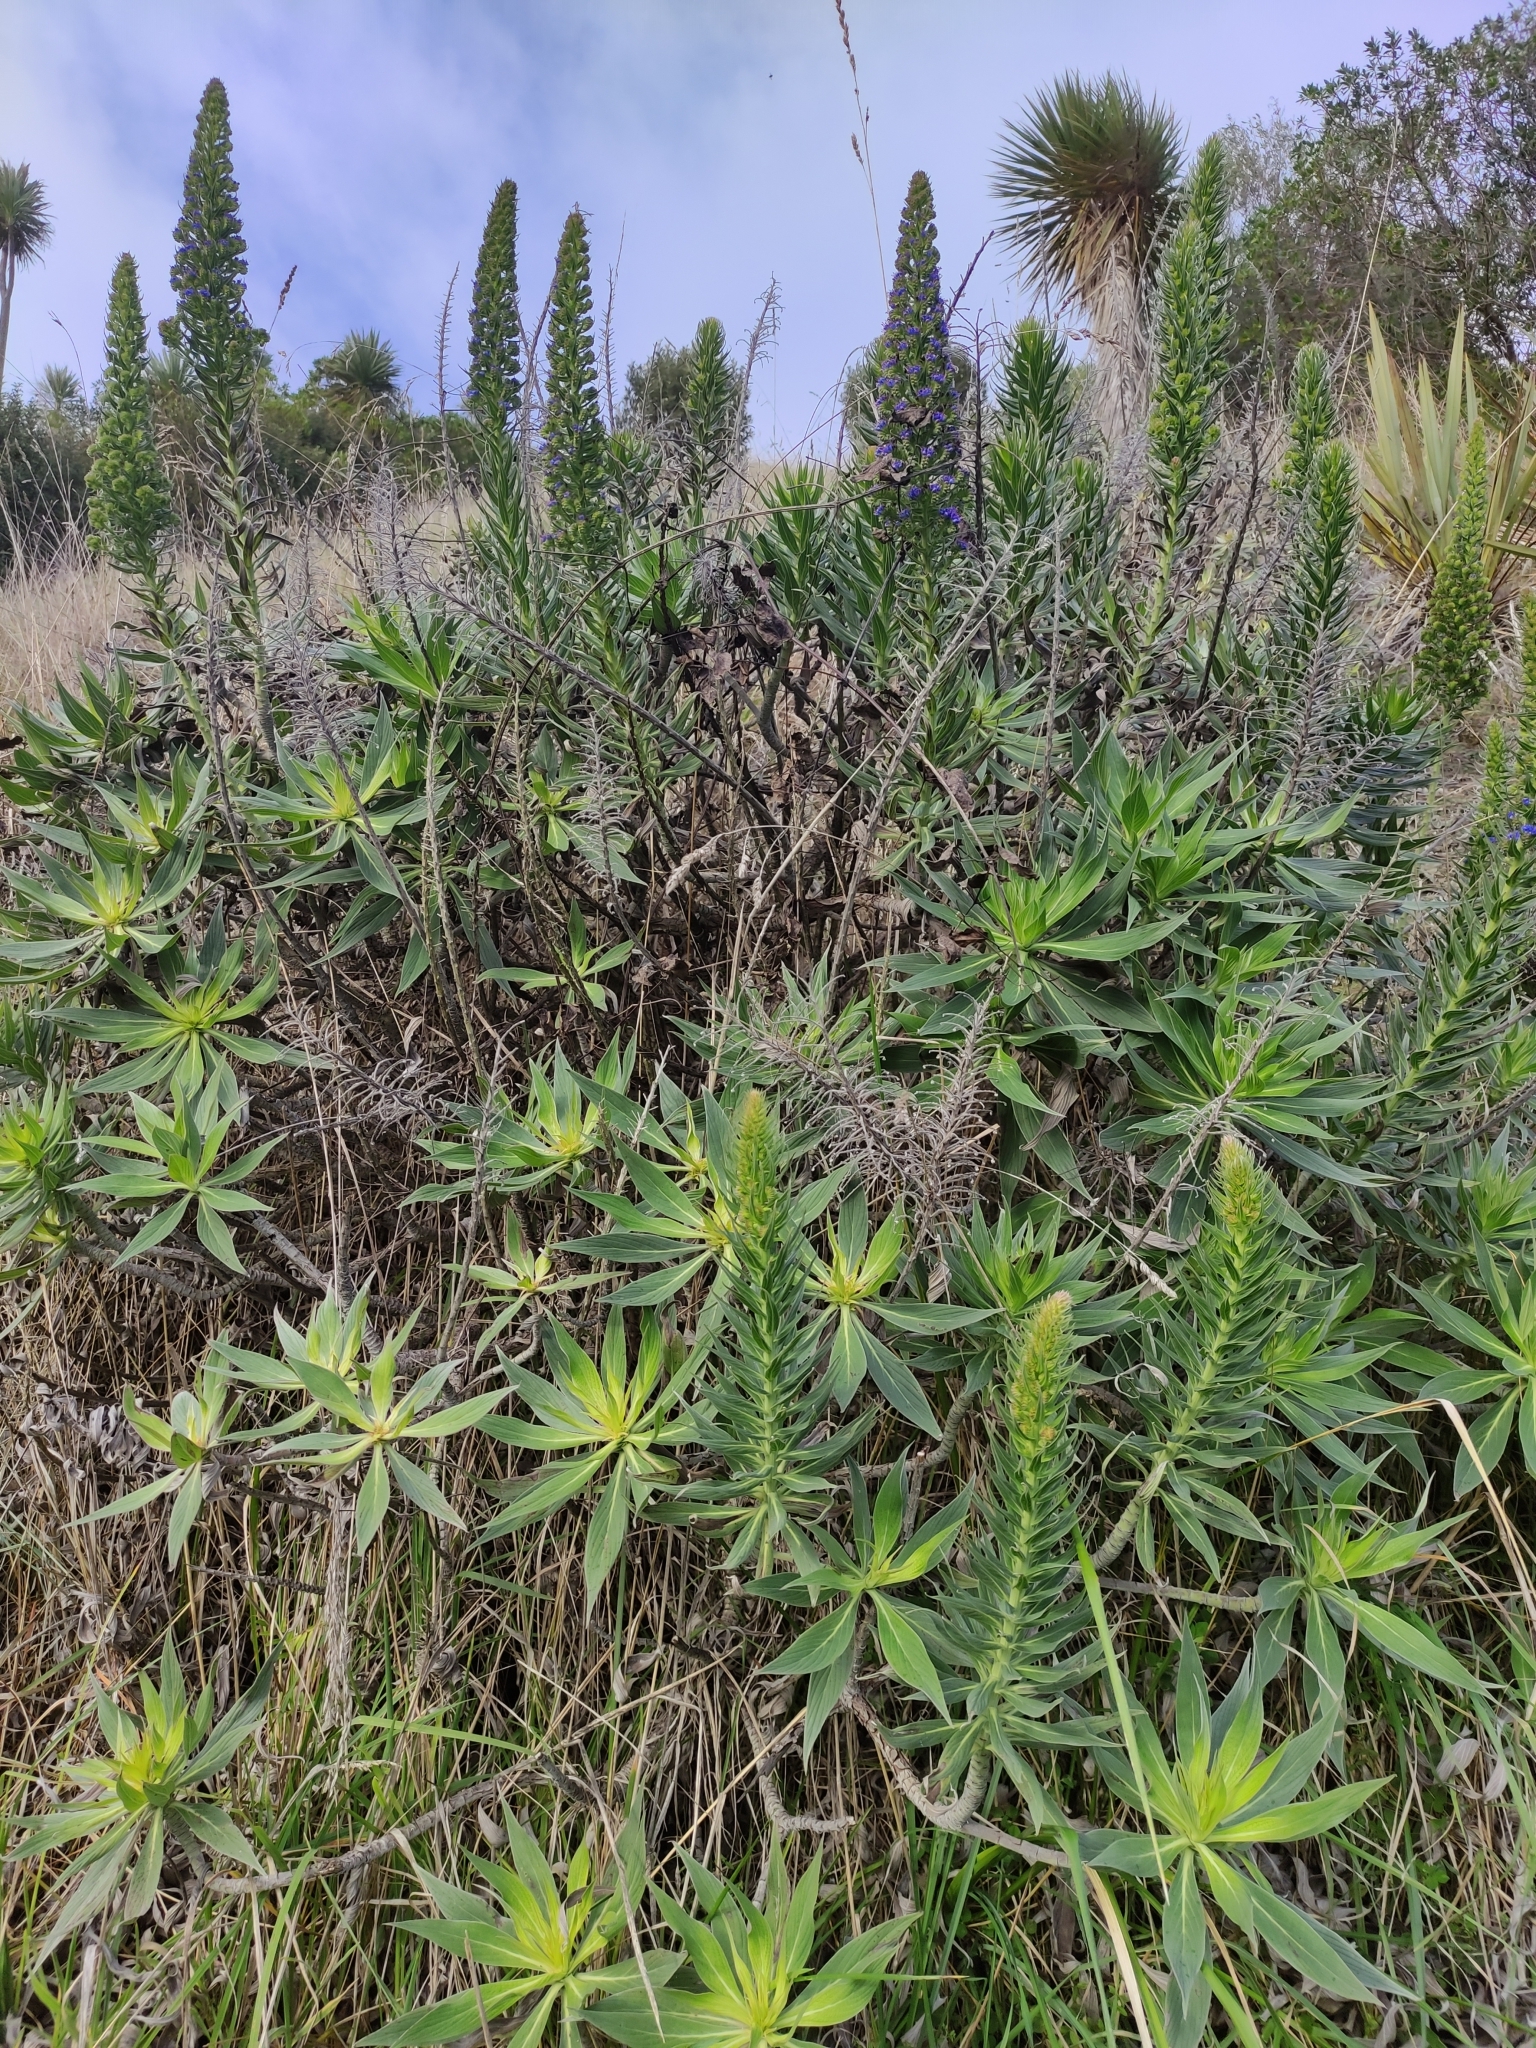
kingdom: Plantae
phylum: Tracheophyta
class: Magnoliopsida
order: Boraginales
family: Boraginaceae
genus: Echium
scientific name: Echium candicans
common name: Pride of madeira
